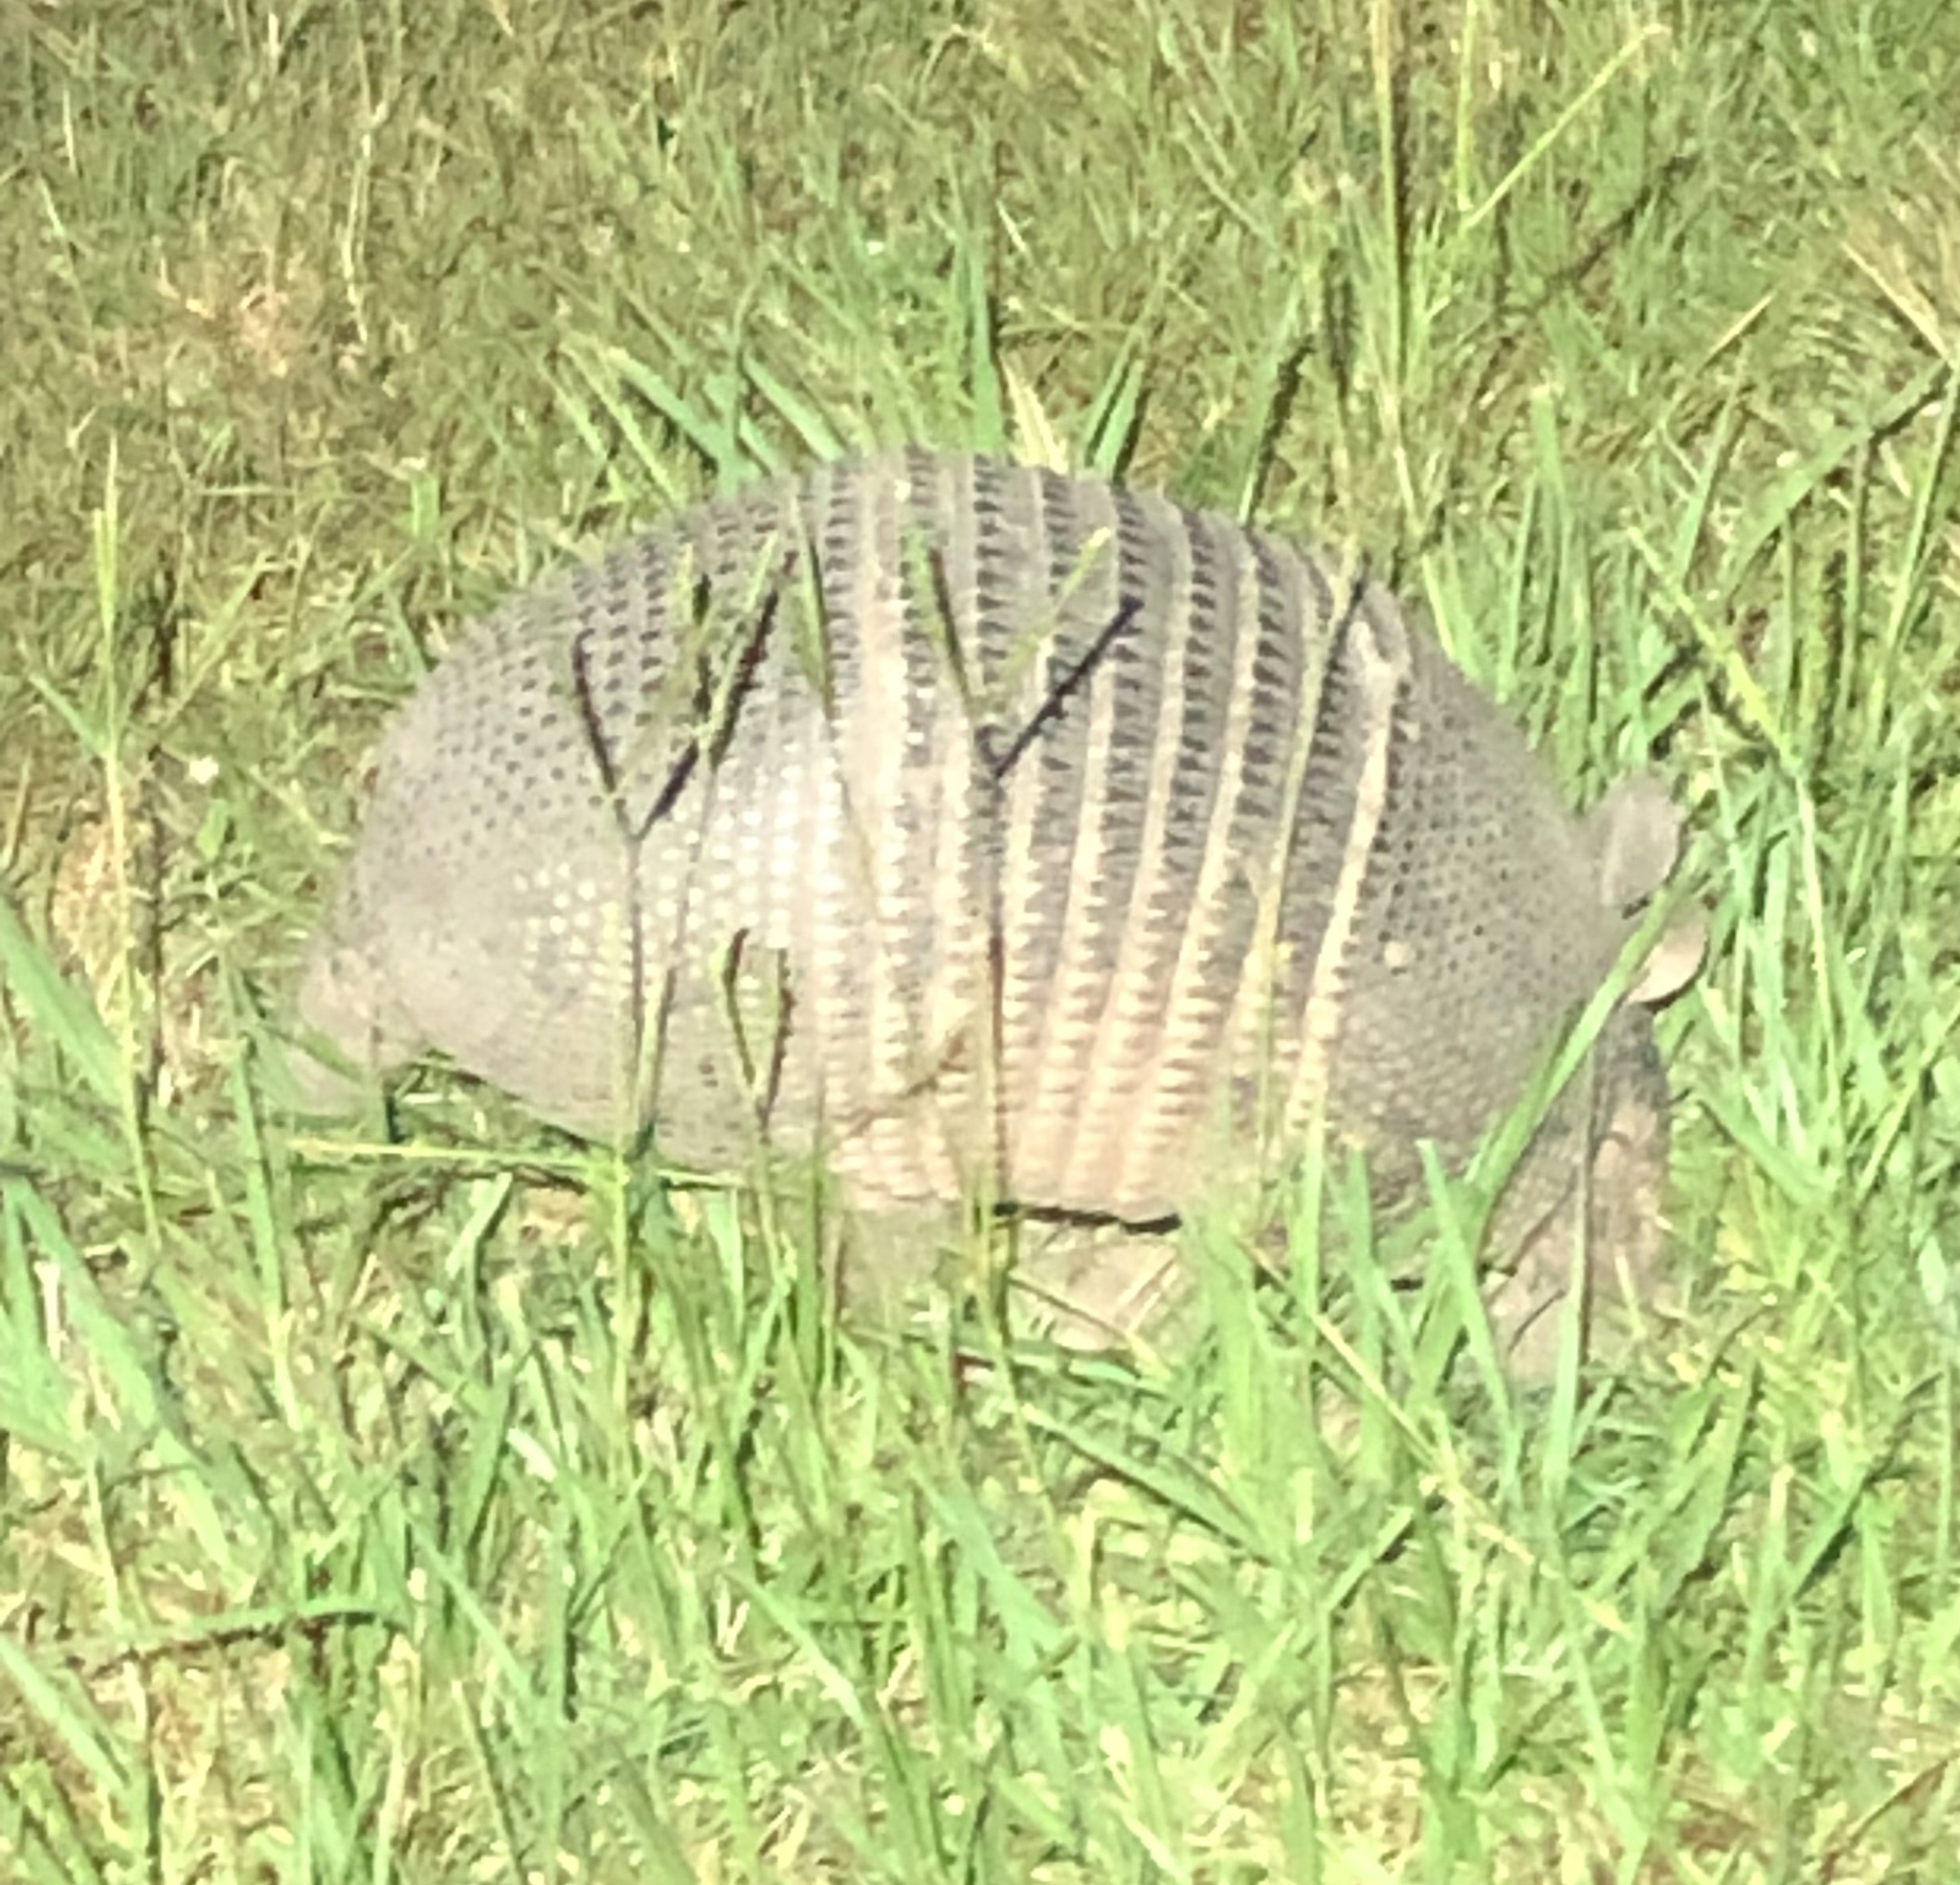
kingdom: Animalia
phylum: Chordata
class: Mammalia
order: Cingulata
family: Dasypodidae
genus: Dasypus
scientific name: Dasypus novemcinctus
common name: Nine-banded armadillo
